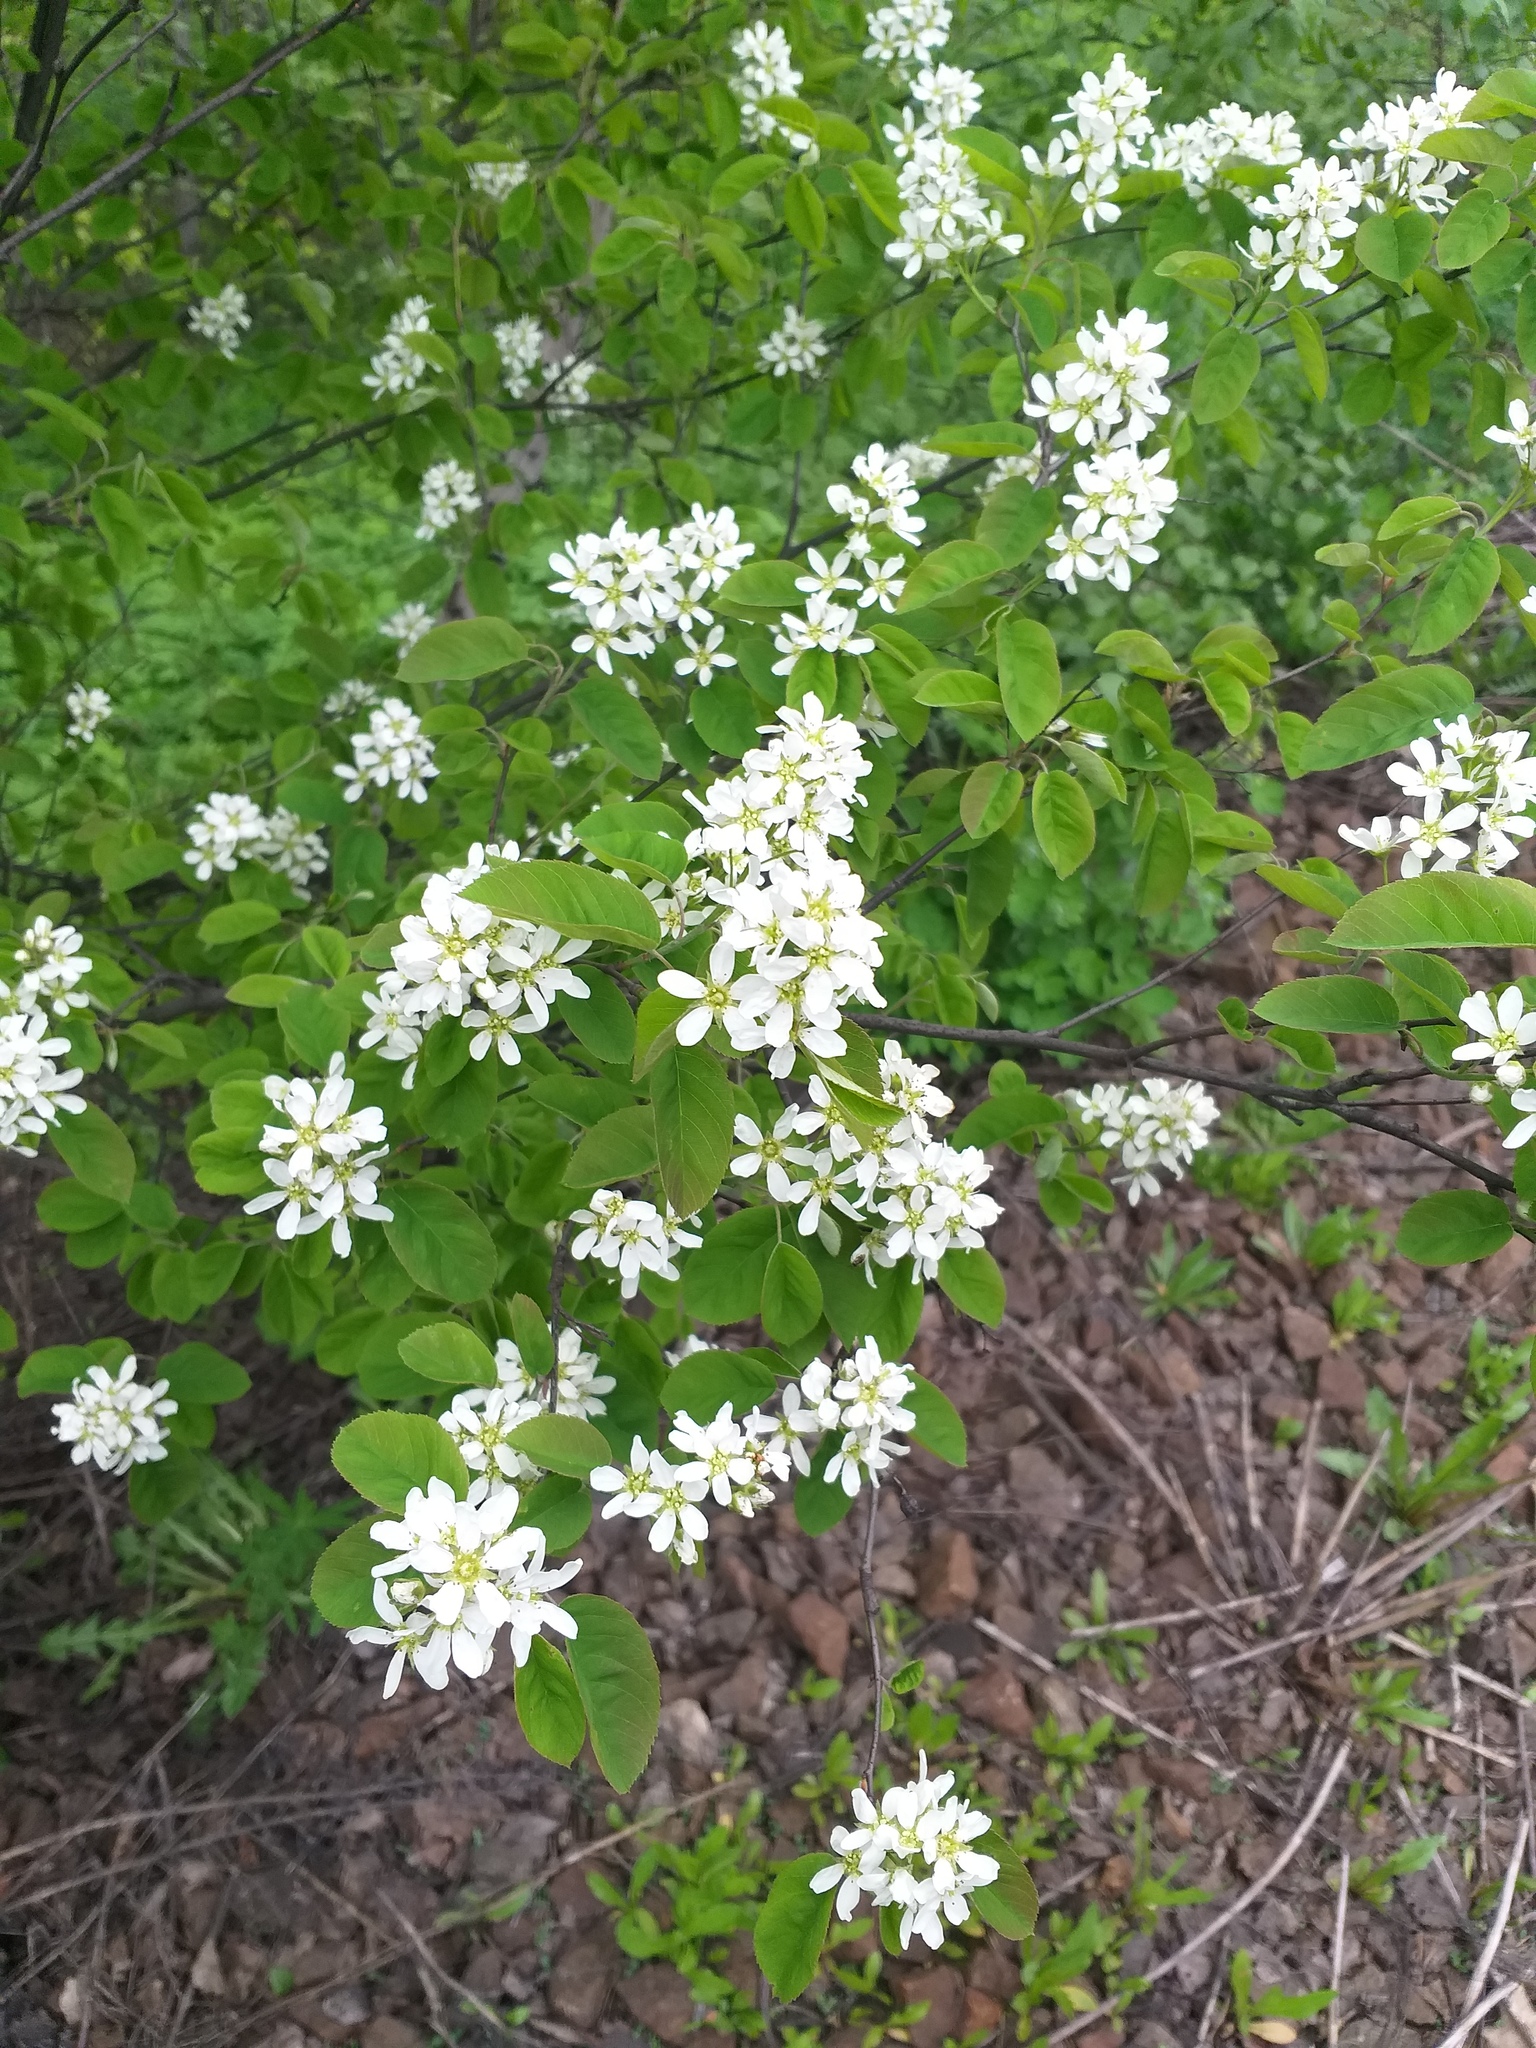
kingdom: Plantae
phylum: Tracheophyta
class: Magnoliopsida
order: Rosales
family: Rosaceae
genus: Amelanchier
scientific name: Amelanchier
